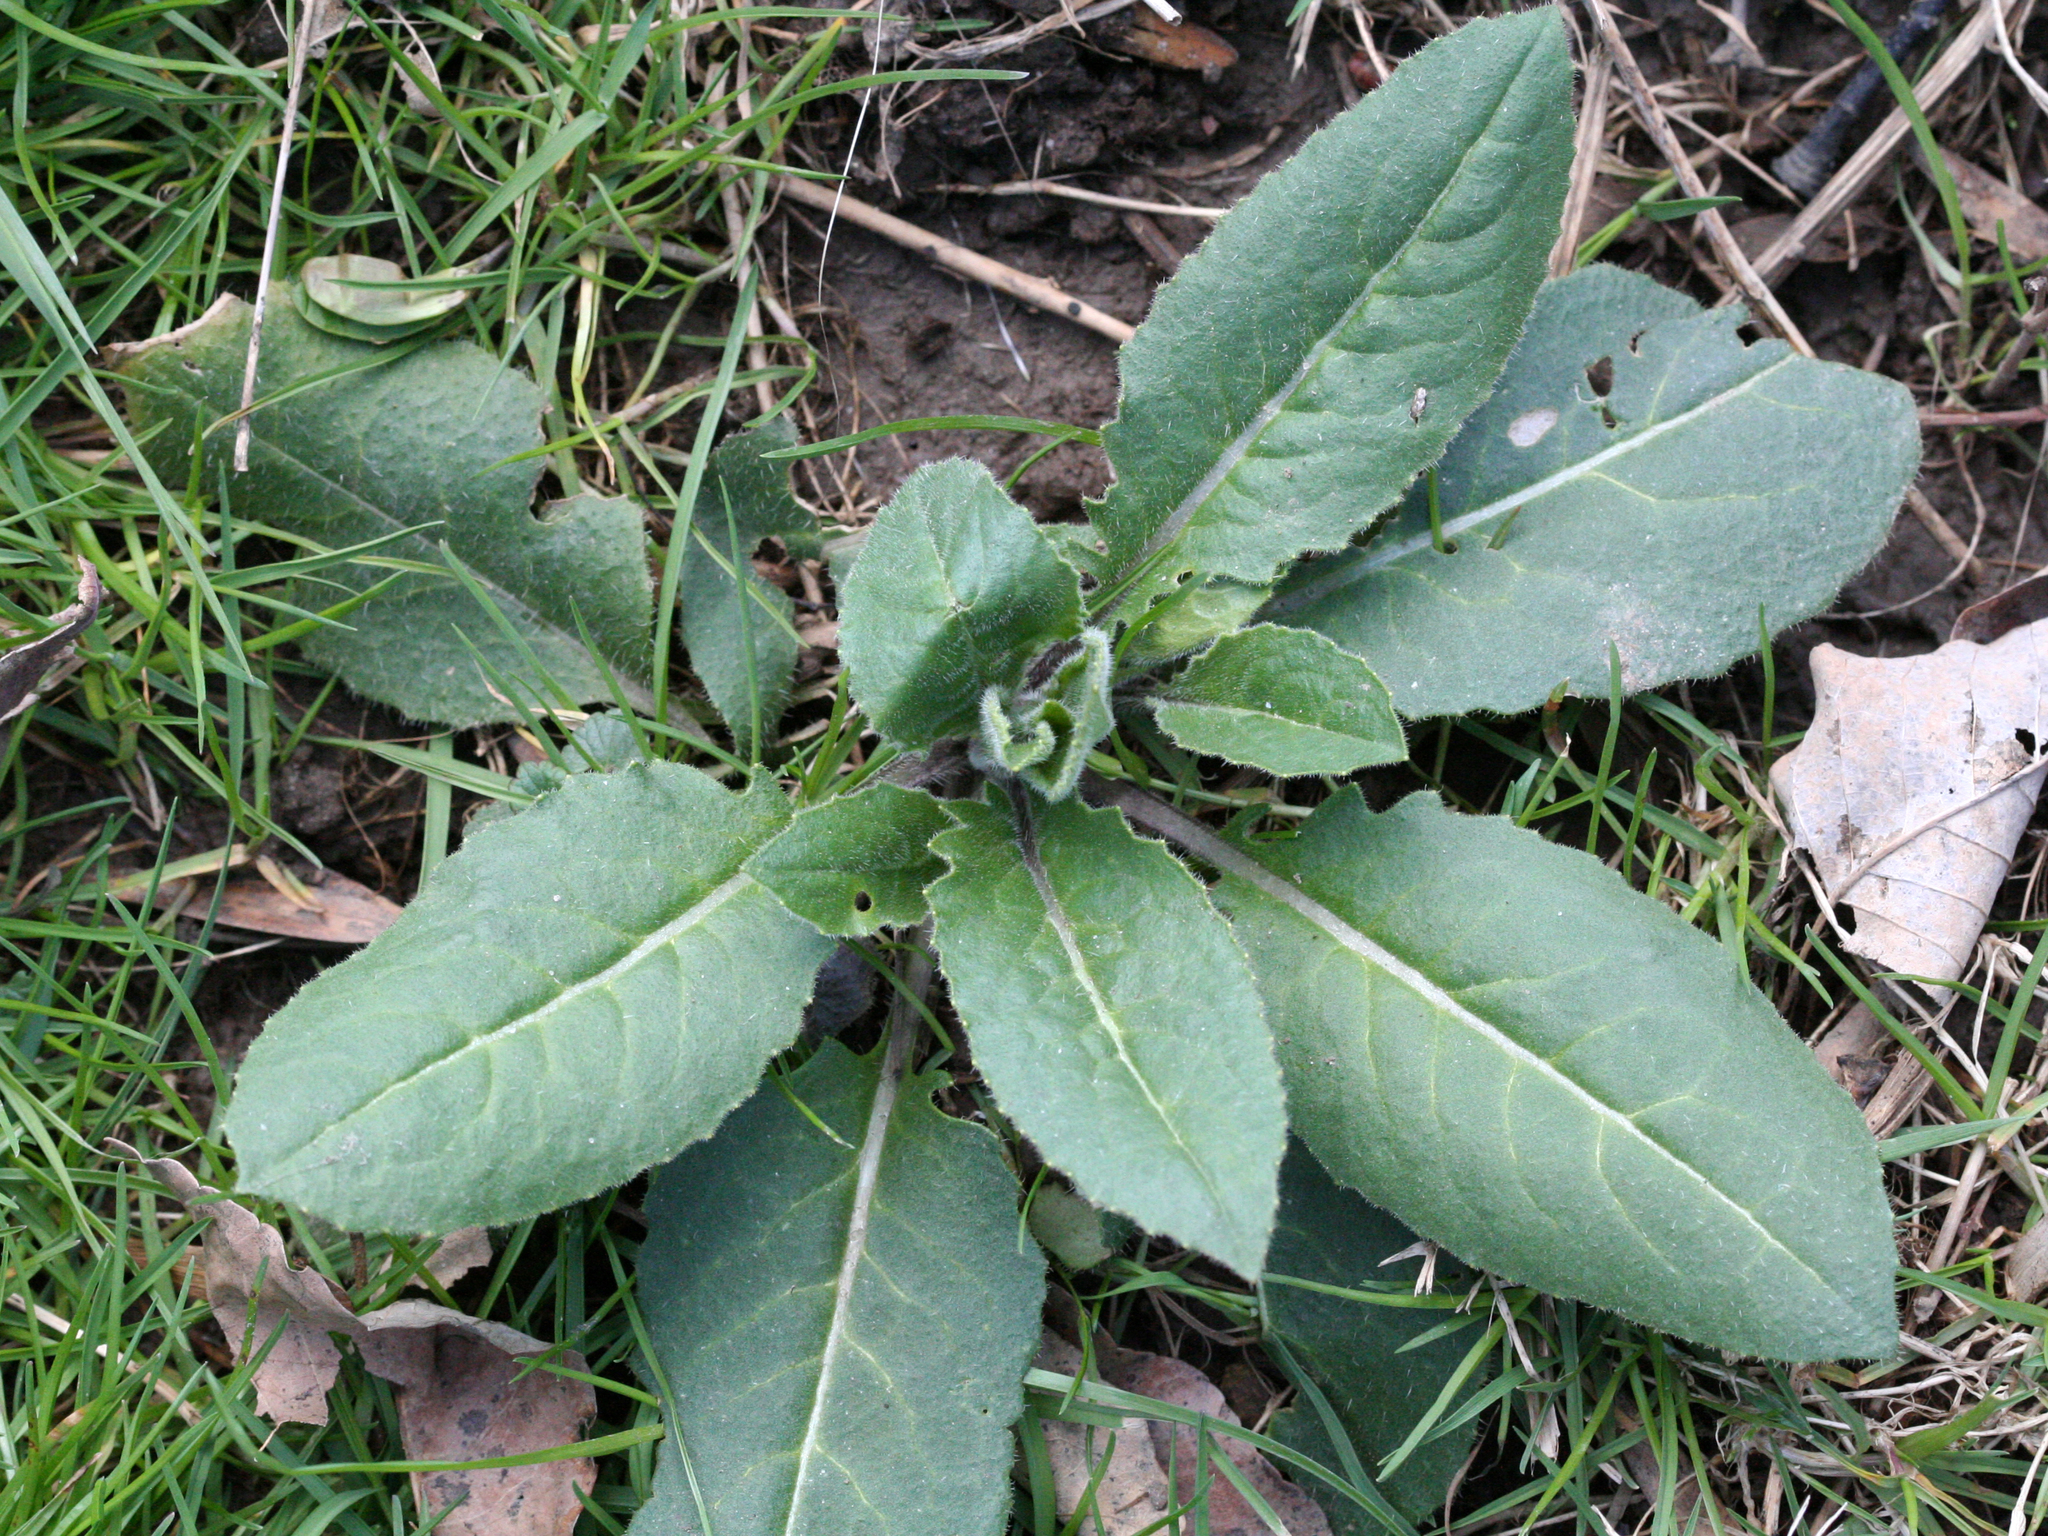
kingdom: Plantae
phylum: Tracheophyta
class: Magnoliopsida
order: Brassicales
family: Brassicaceae
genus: Hesperis
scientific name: Hesperis matronalis
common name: Dame's-violet
